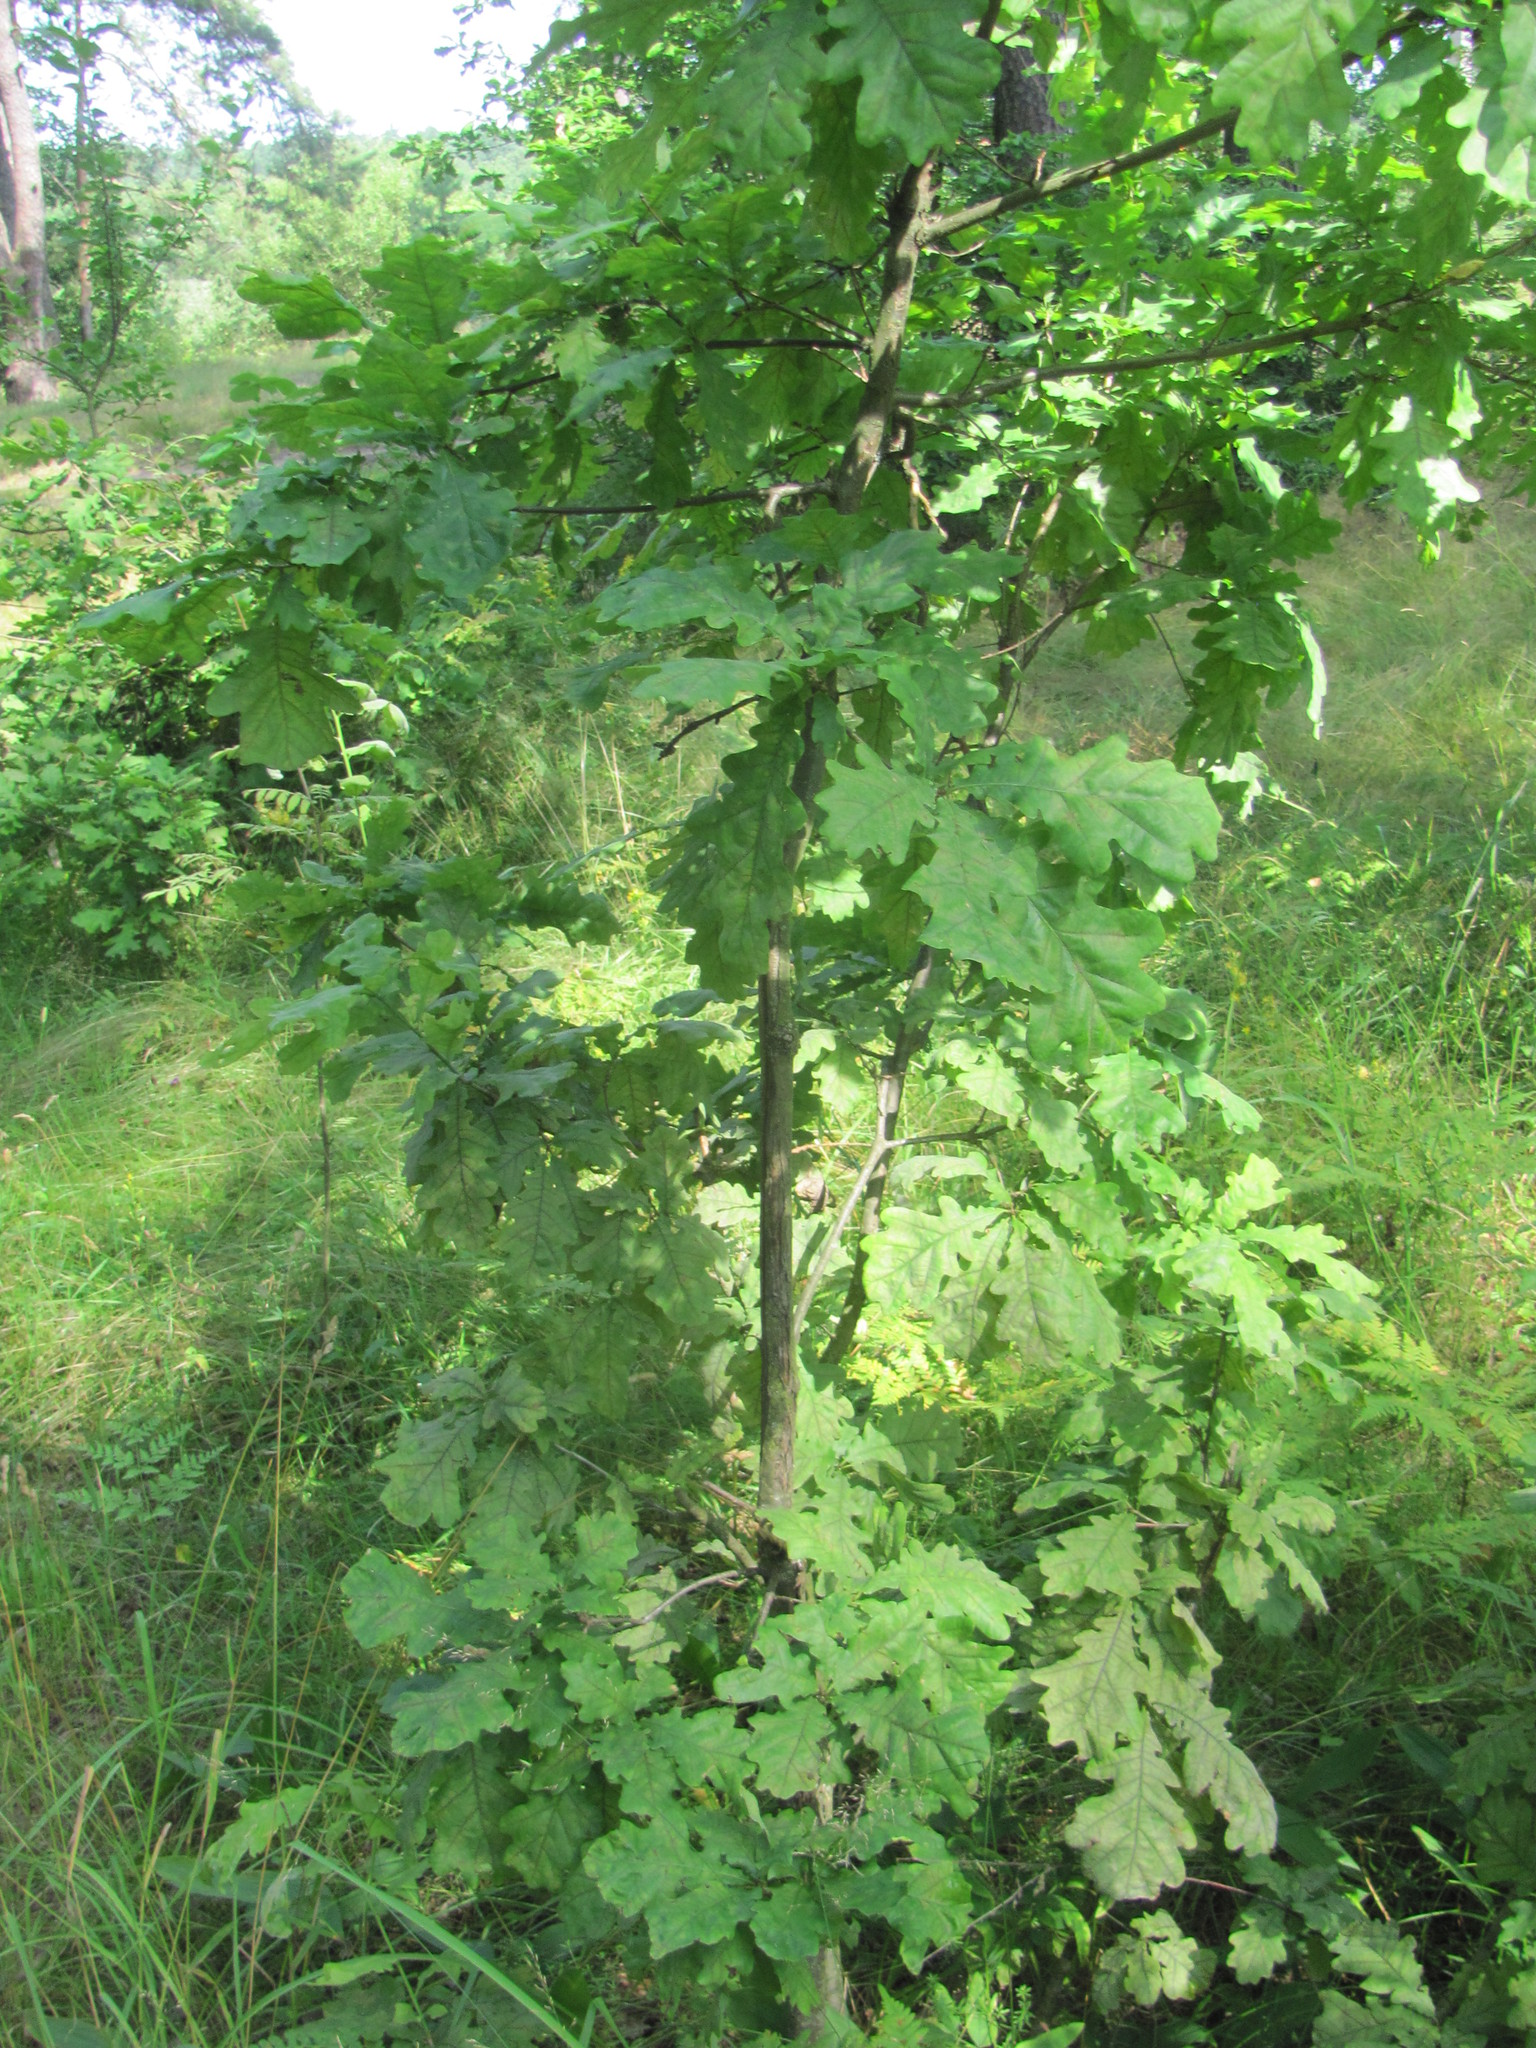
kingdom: Plantae
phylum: Tracheophyta
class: Magnoliopsida
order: Fagales
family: Fagaceae
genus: Quercus
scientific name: Quercus robur
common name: Pedunculate oak
